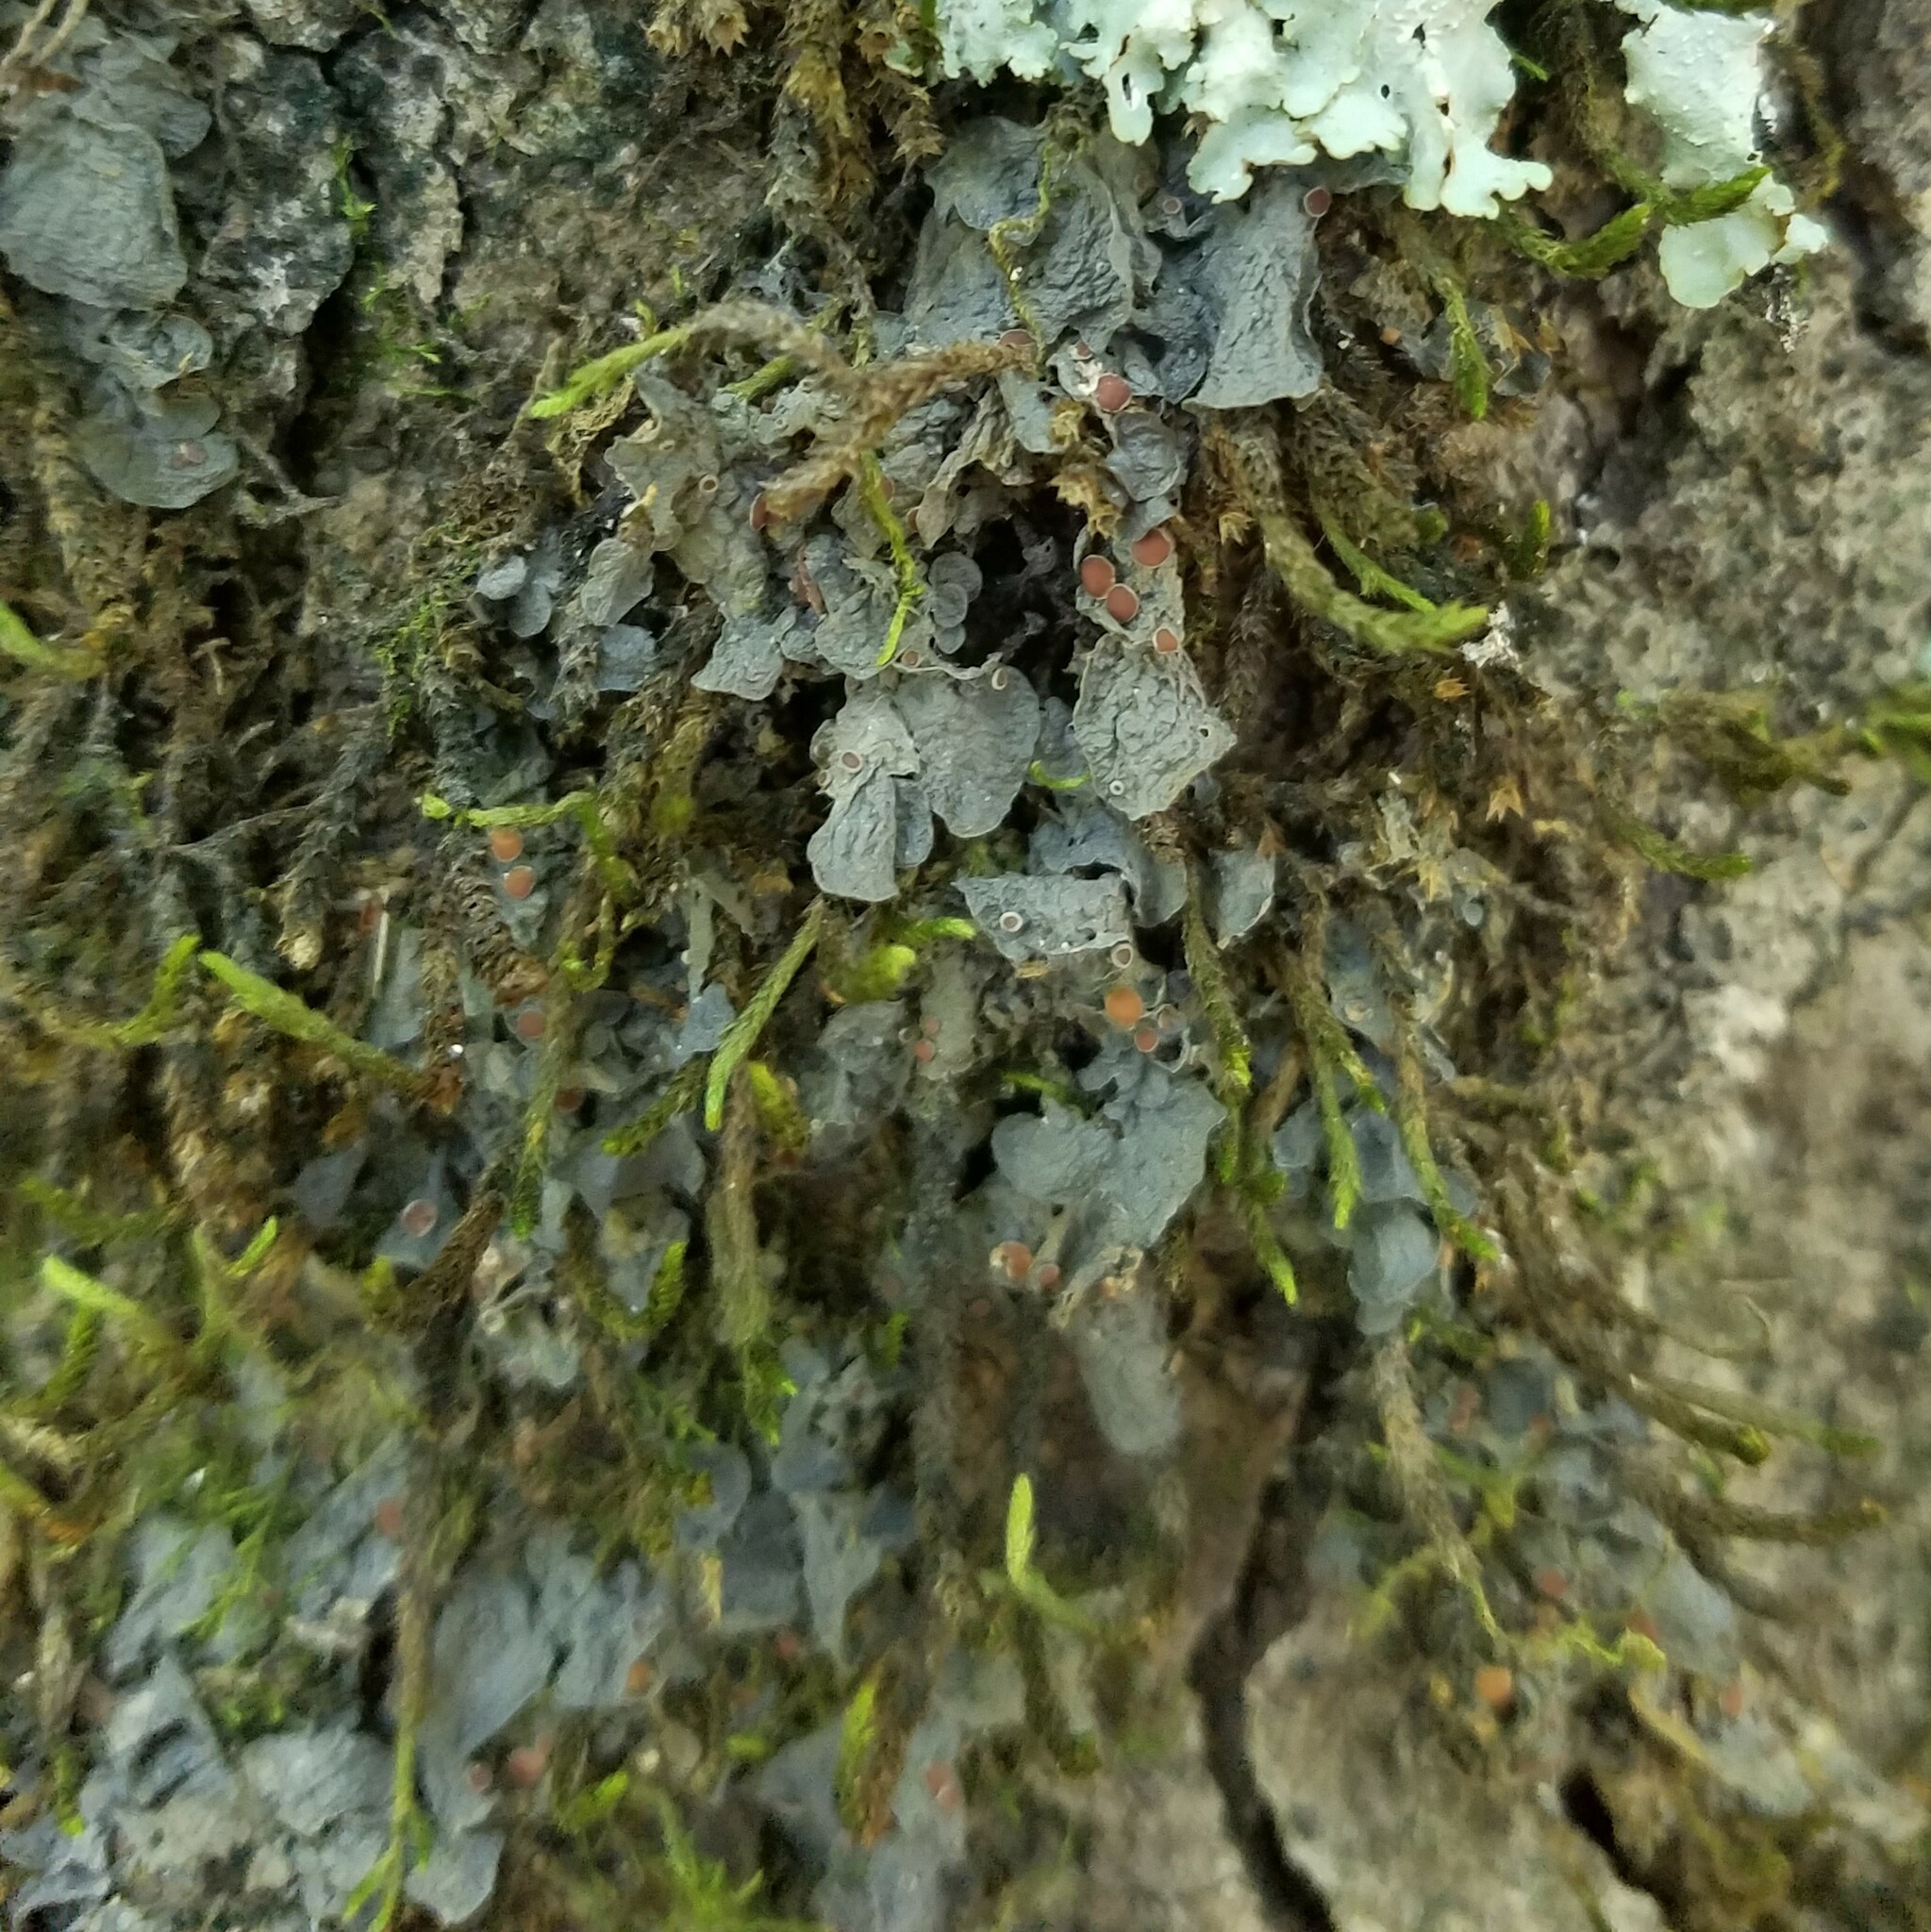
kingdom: Fungi
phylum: Ascomycota
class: Lecanoromycetes
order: Peltigerales
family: Collemataceae
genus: Leptogium
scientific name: Leptogium corticola
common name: Blistered jellyskin lichen
